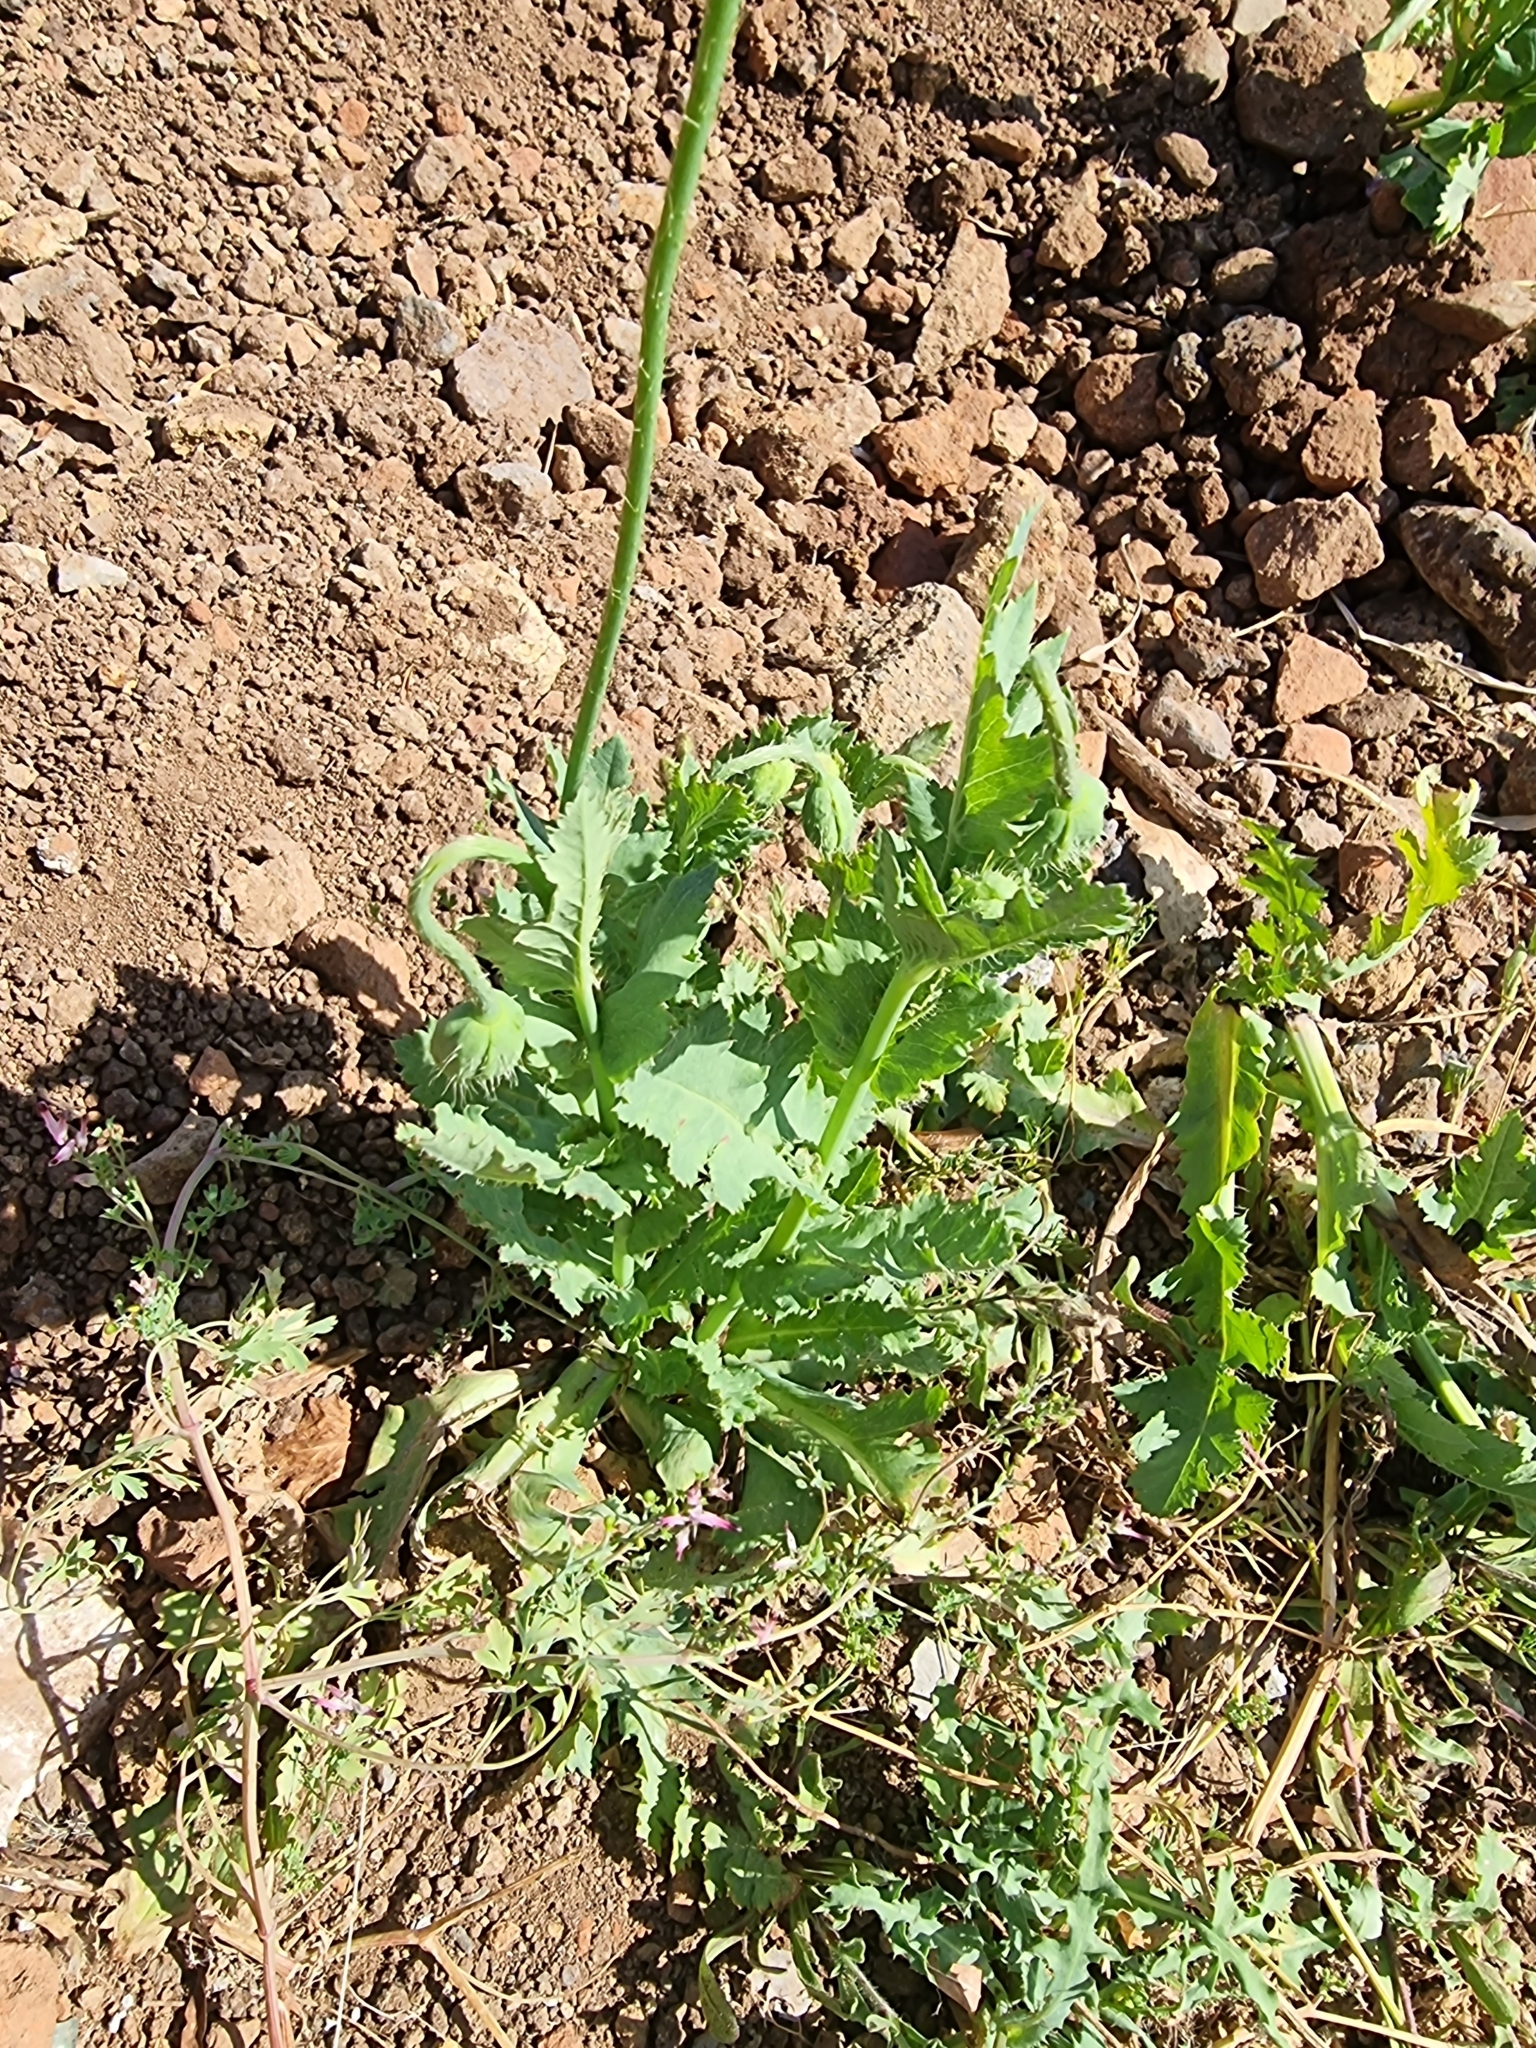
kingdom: Plantae
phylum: Tracheophyta
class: Magnoliopsida
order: Ranunculales
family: Papaveraceae
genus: Papaver
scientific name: Papaver somniferum
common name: Opium poppy
